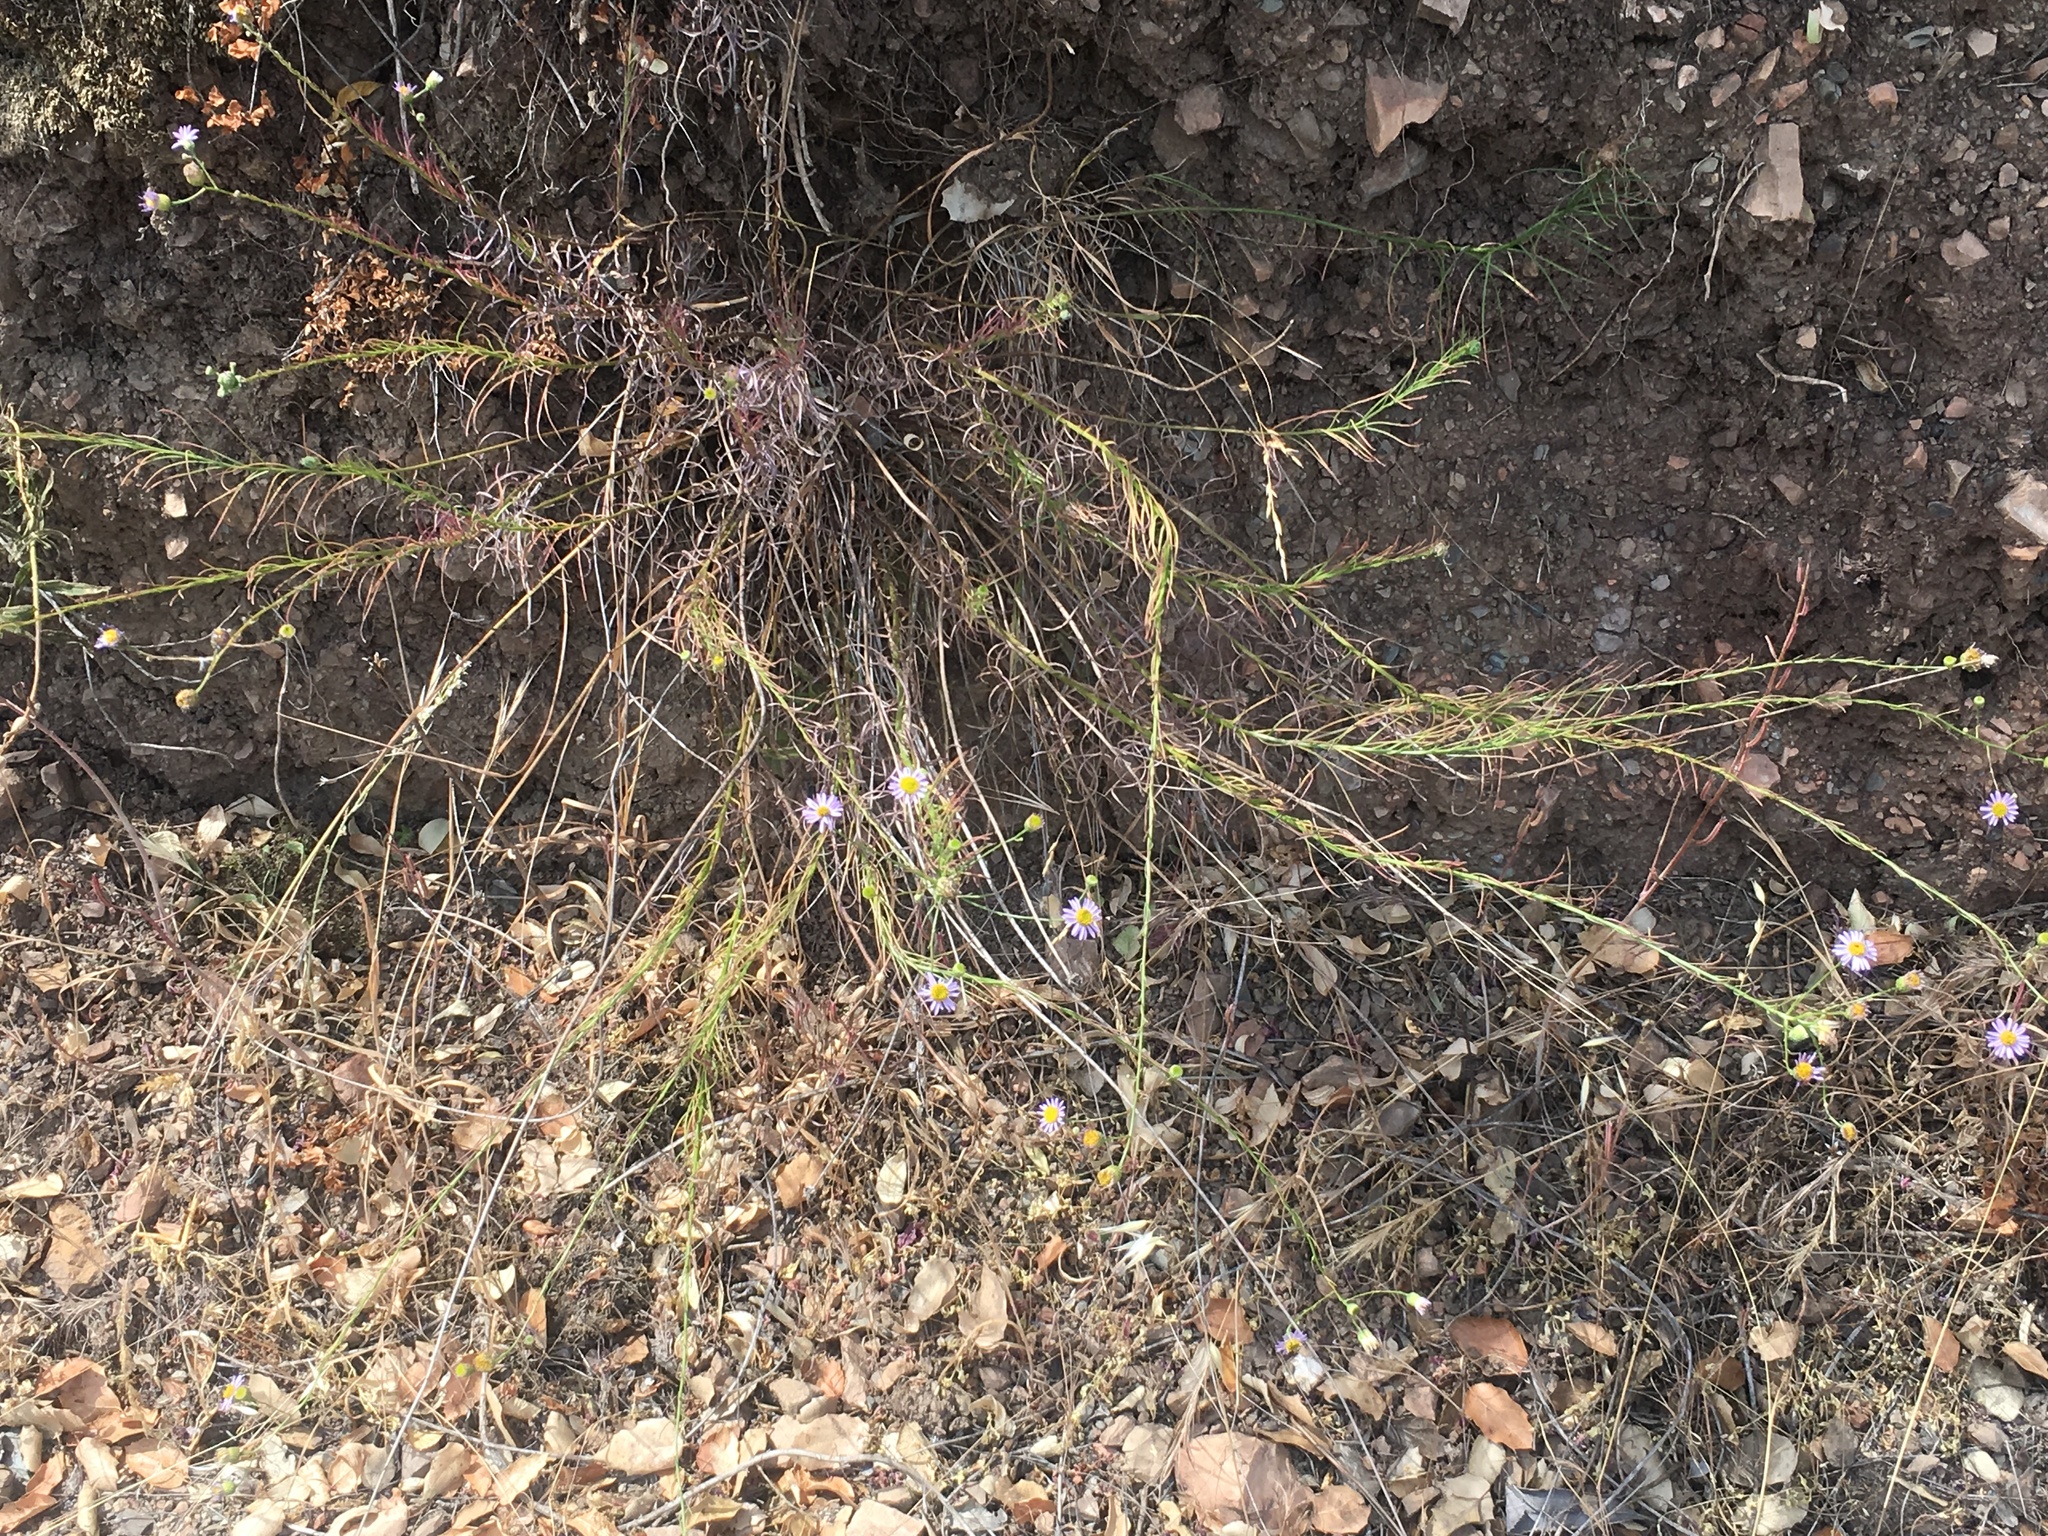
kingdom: Plantae
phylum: Tracheophyta
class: Magnoliopsida
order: Asterales
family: Asteraceae
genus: Erigeron
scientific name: Erigeron foliosus
